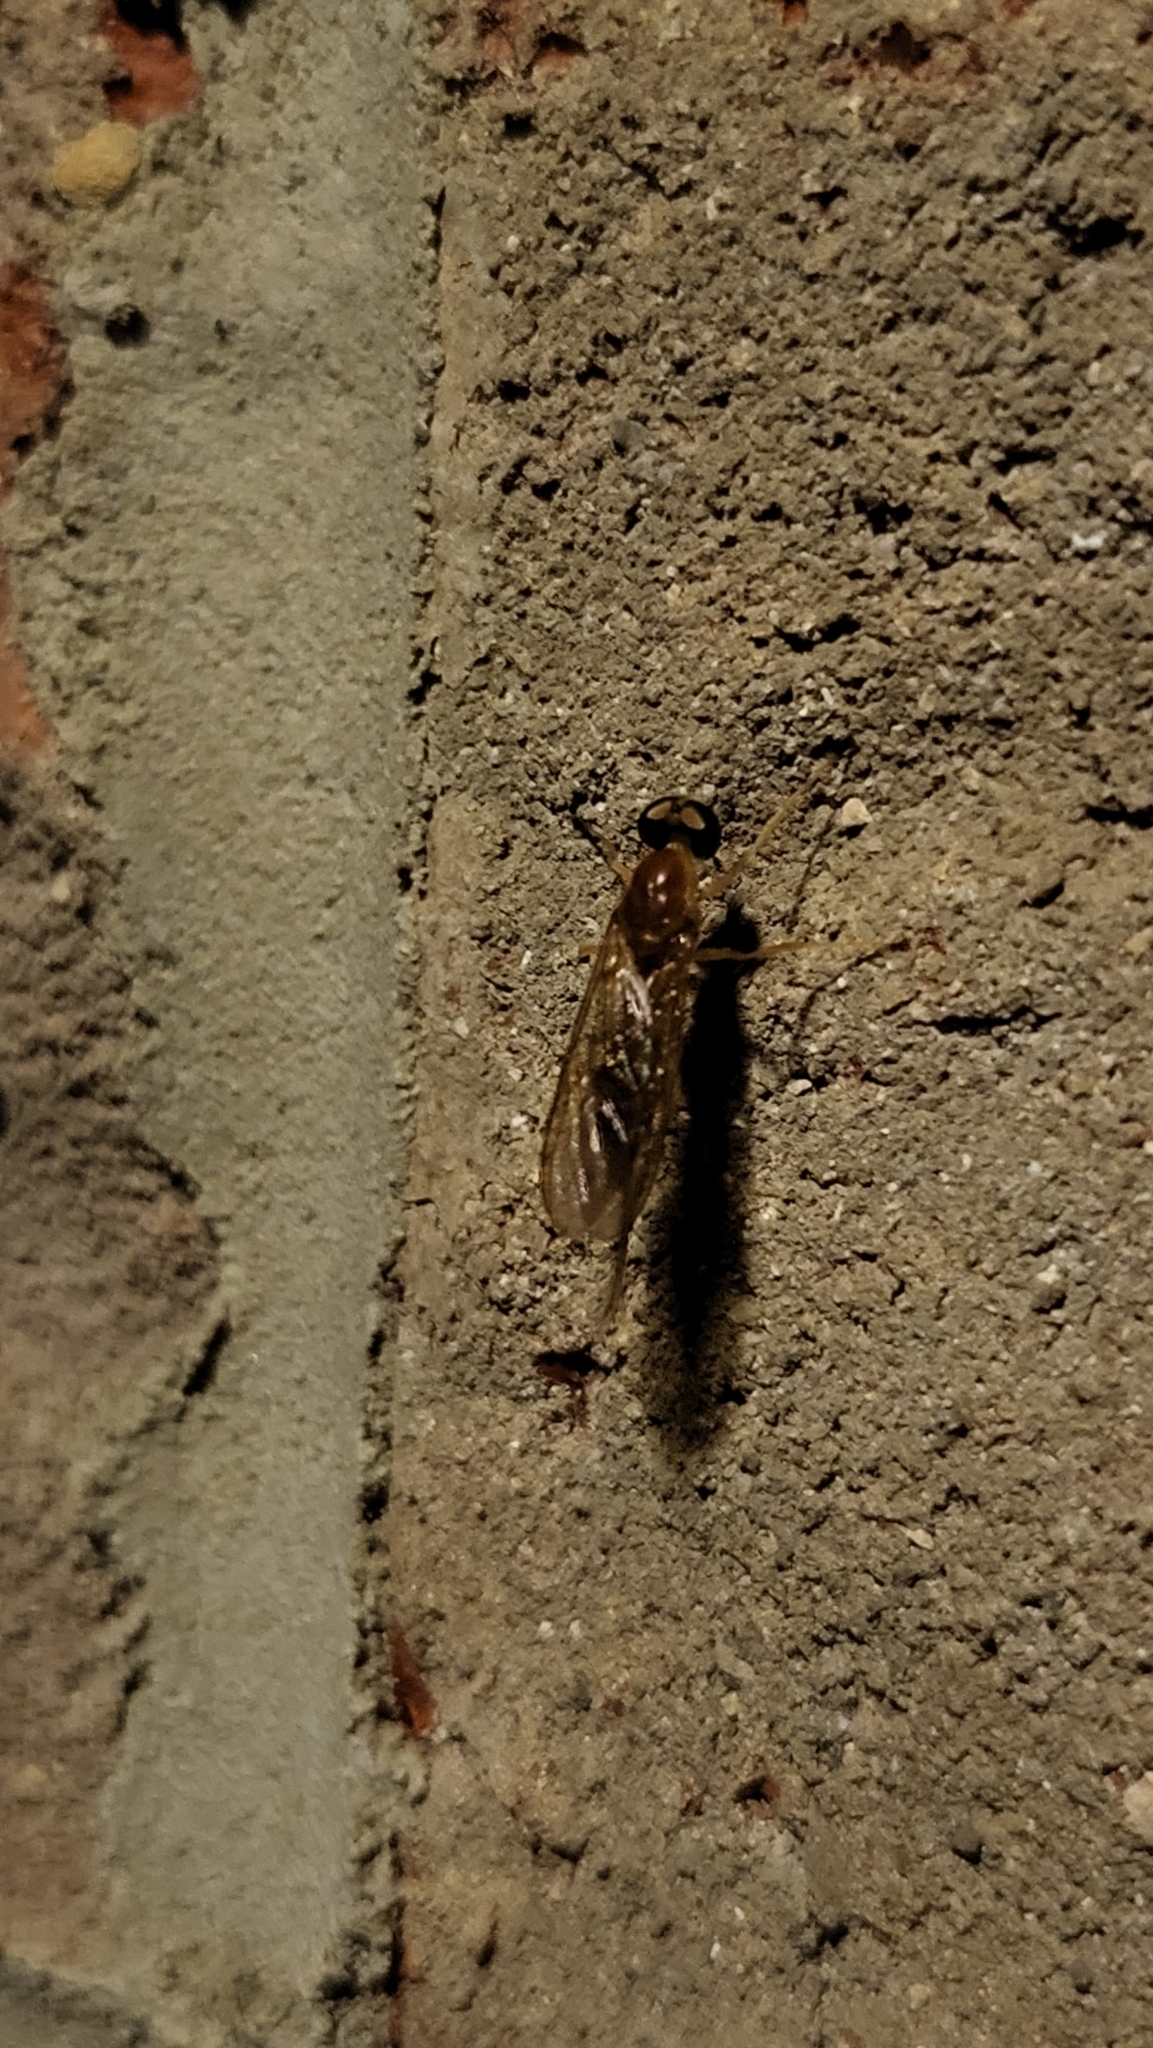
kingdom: Animalia
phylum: Arthropoda
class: Insecta
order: Diptera
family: Stratiomyidae
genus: Ptecticus
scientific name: Ptecticus trivittatus
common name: Compost fly
